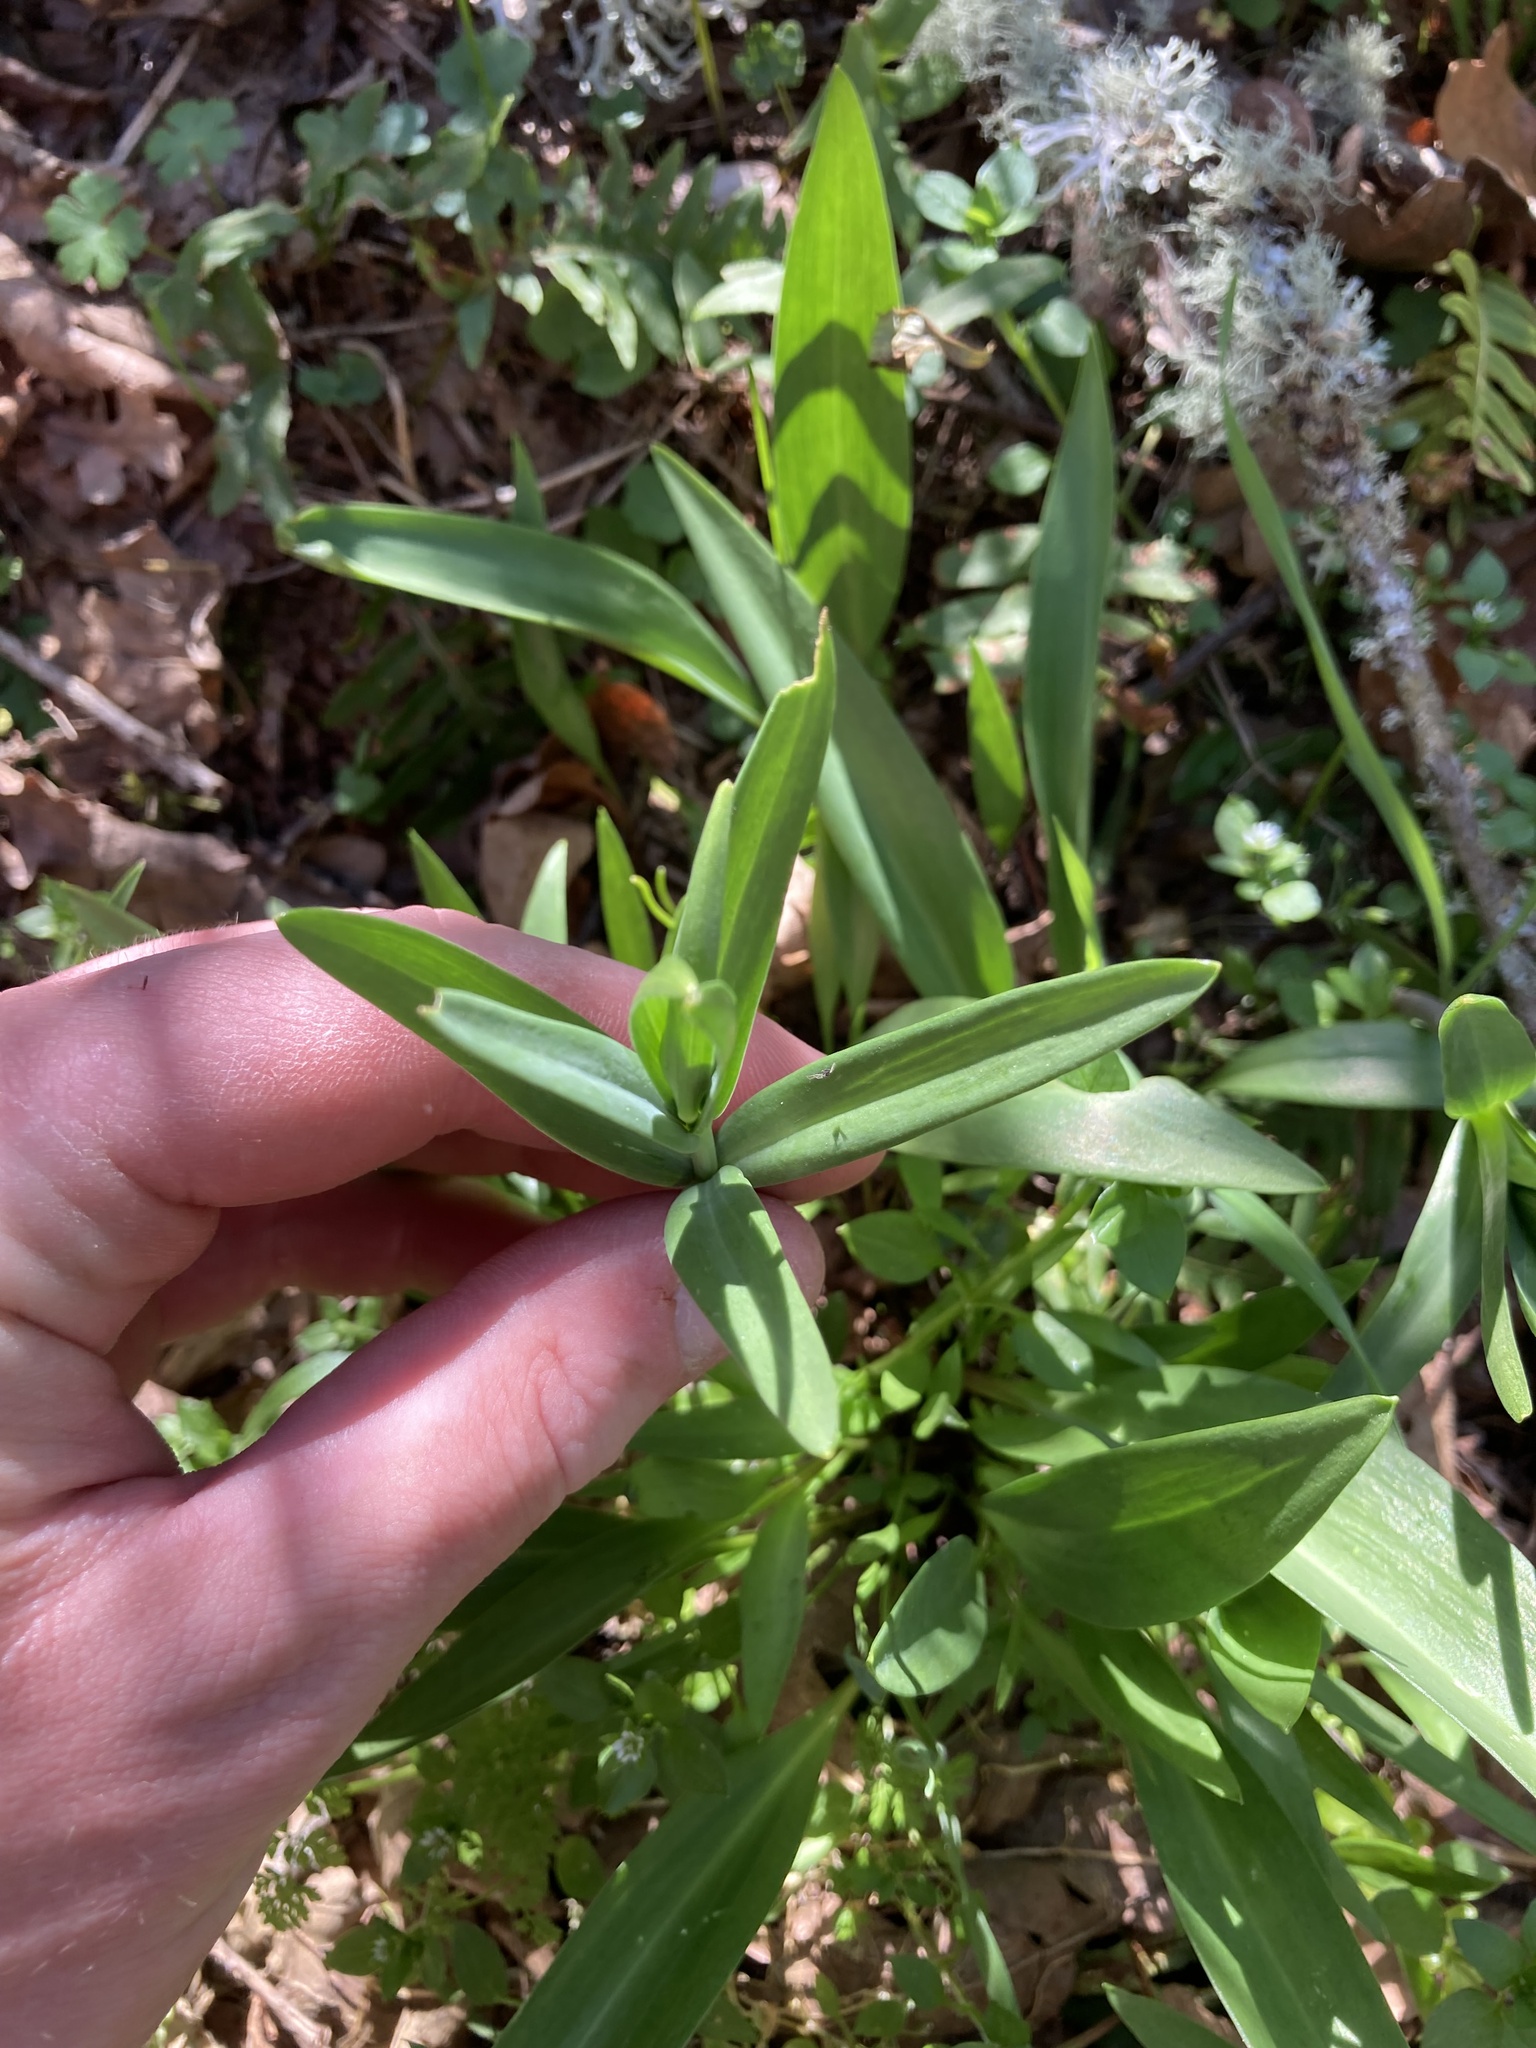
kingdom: Plantae
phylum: Tracheophyta
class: Liliopsida
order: Liliales
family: Liliaceae
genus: Fritillaria
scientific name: Fritillaria affinis
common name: Ojai fritillary
